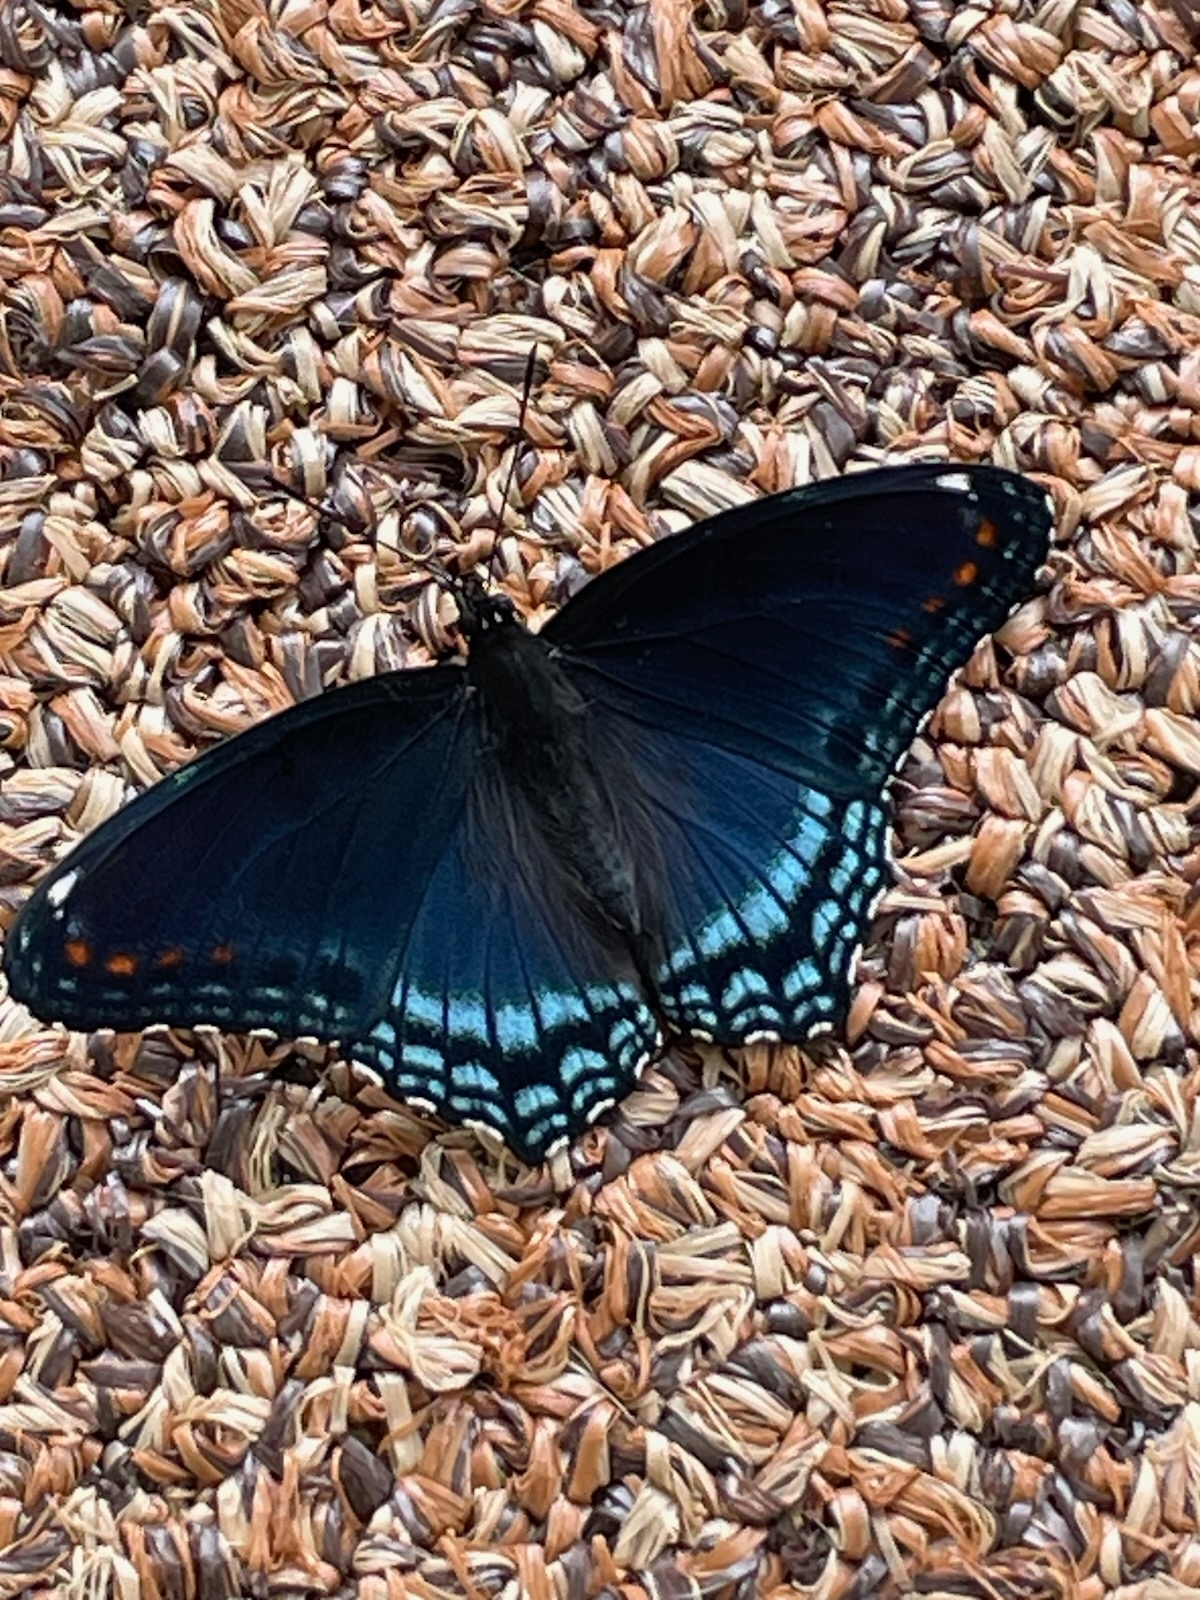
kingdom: Animalia
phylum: Arthropoda
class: Insecta
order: Lepidoptera
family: Nymphalidae
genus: Limenitis
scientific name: Limenitis astyanax
